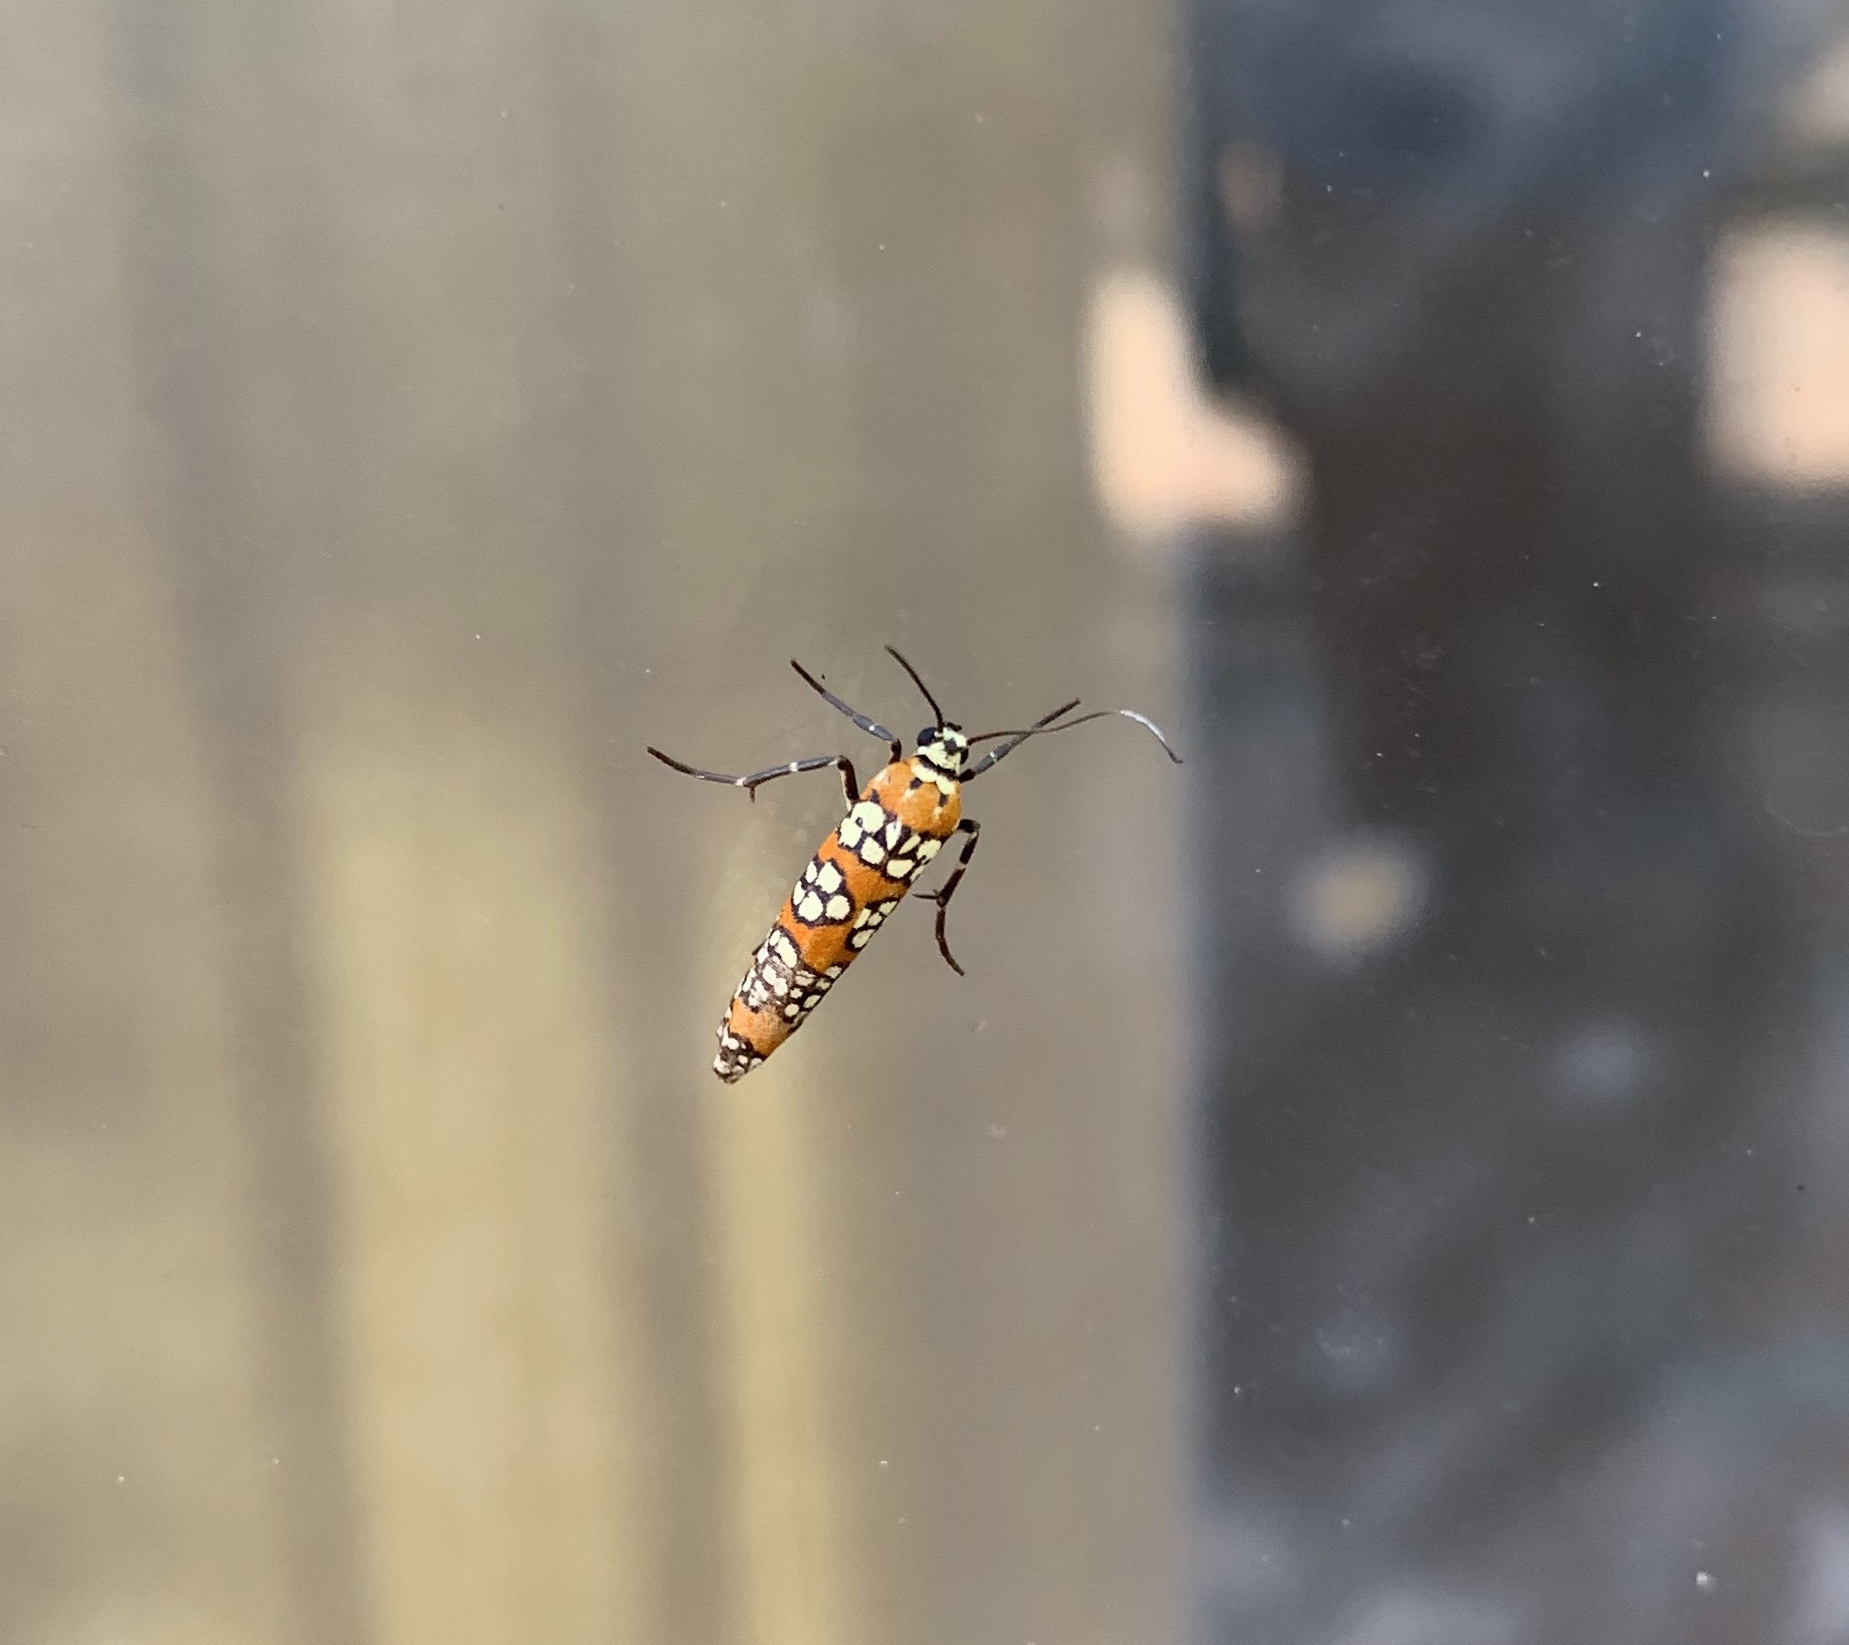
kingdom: Animalia
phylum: Arthropoda
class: Insecta
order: Lepidoptera
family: Attevidae
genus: Atteva
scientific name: Atteva punctella
